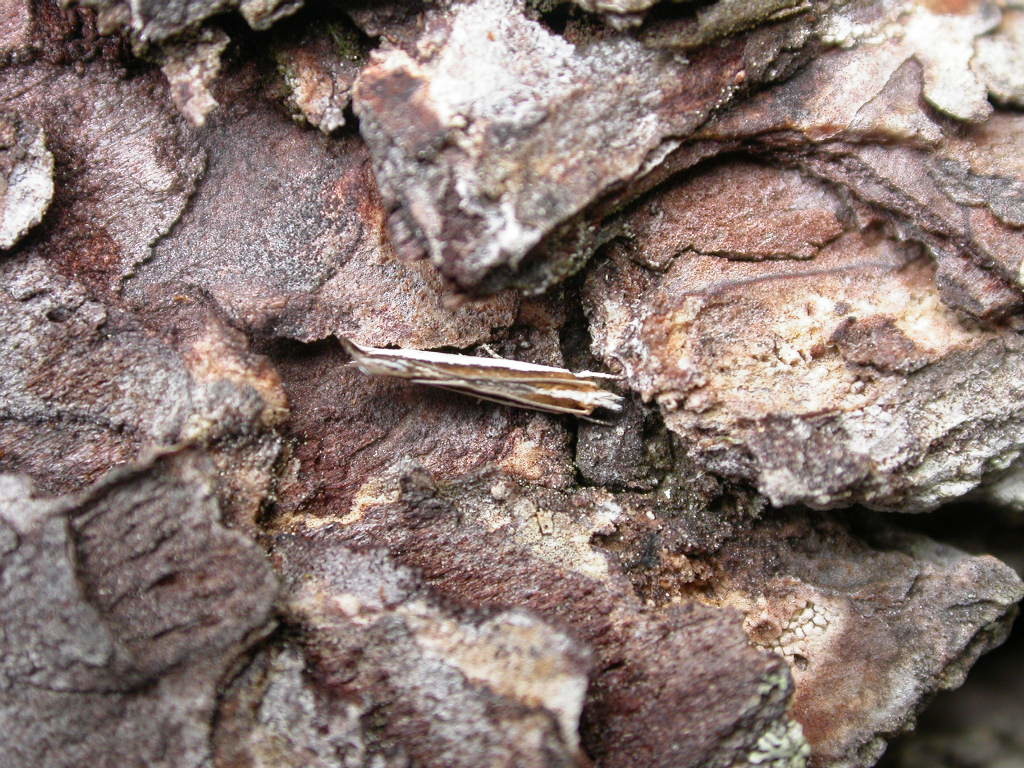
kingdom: Animalia
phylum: Arthropoda
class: Insecta
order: Lepidoptera
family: Tineidae
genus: Erechthias
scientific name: Erechthias chionodira
